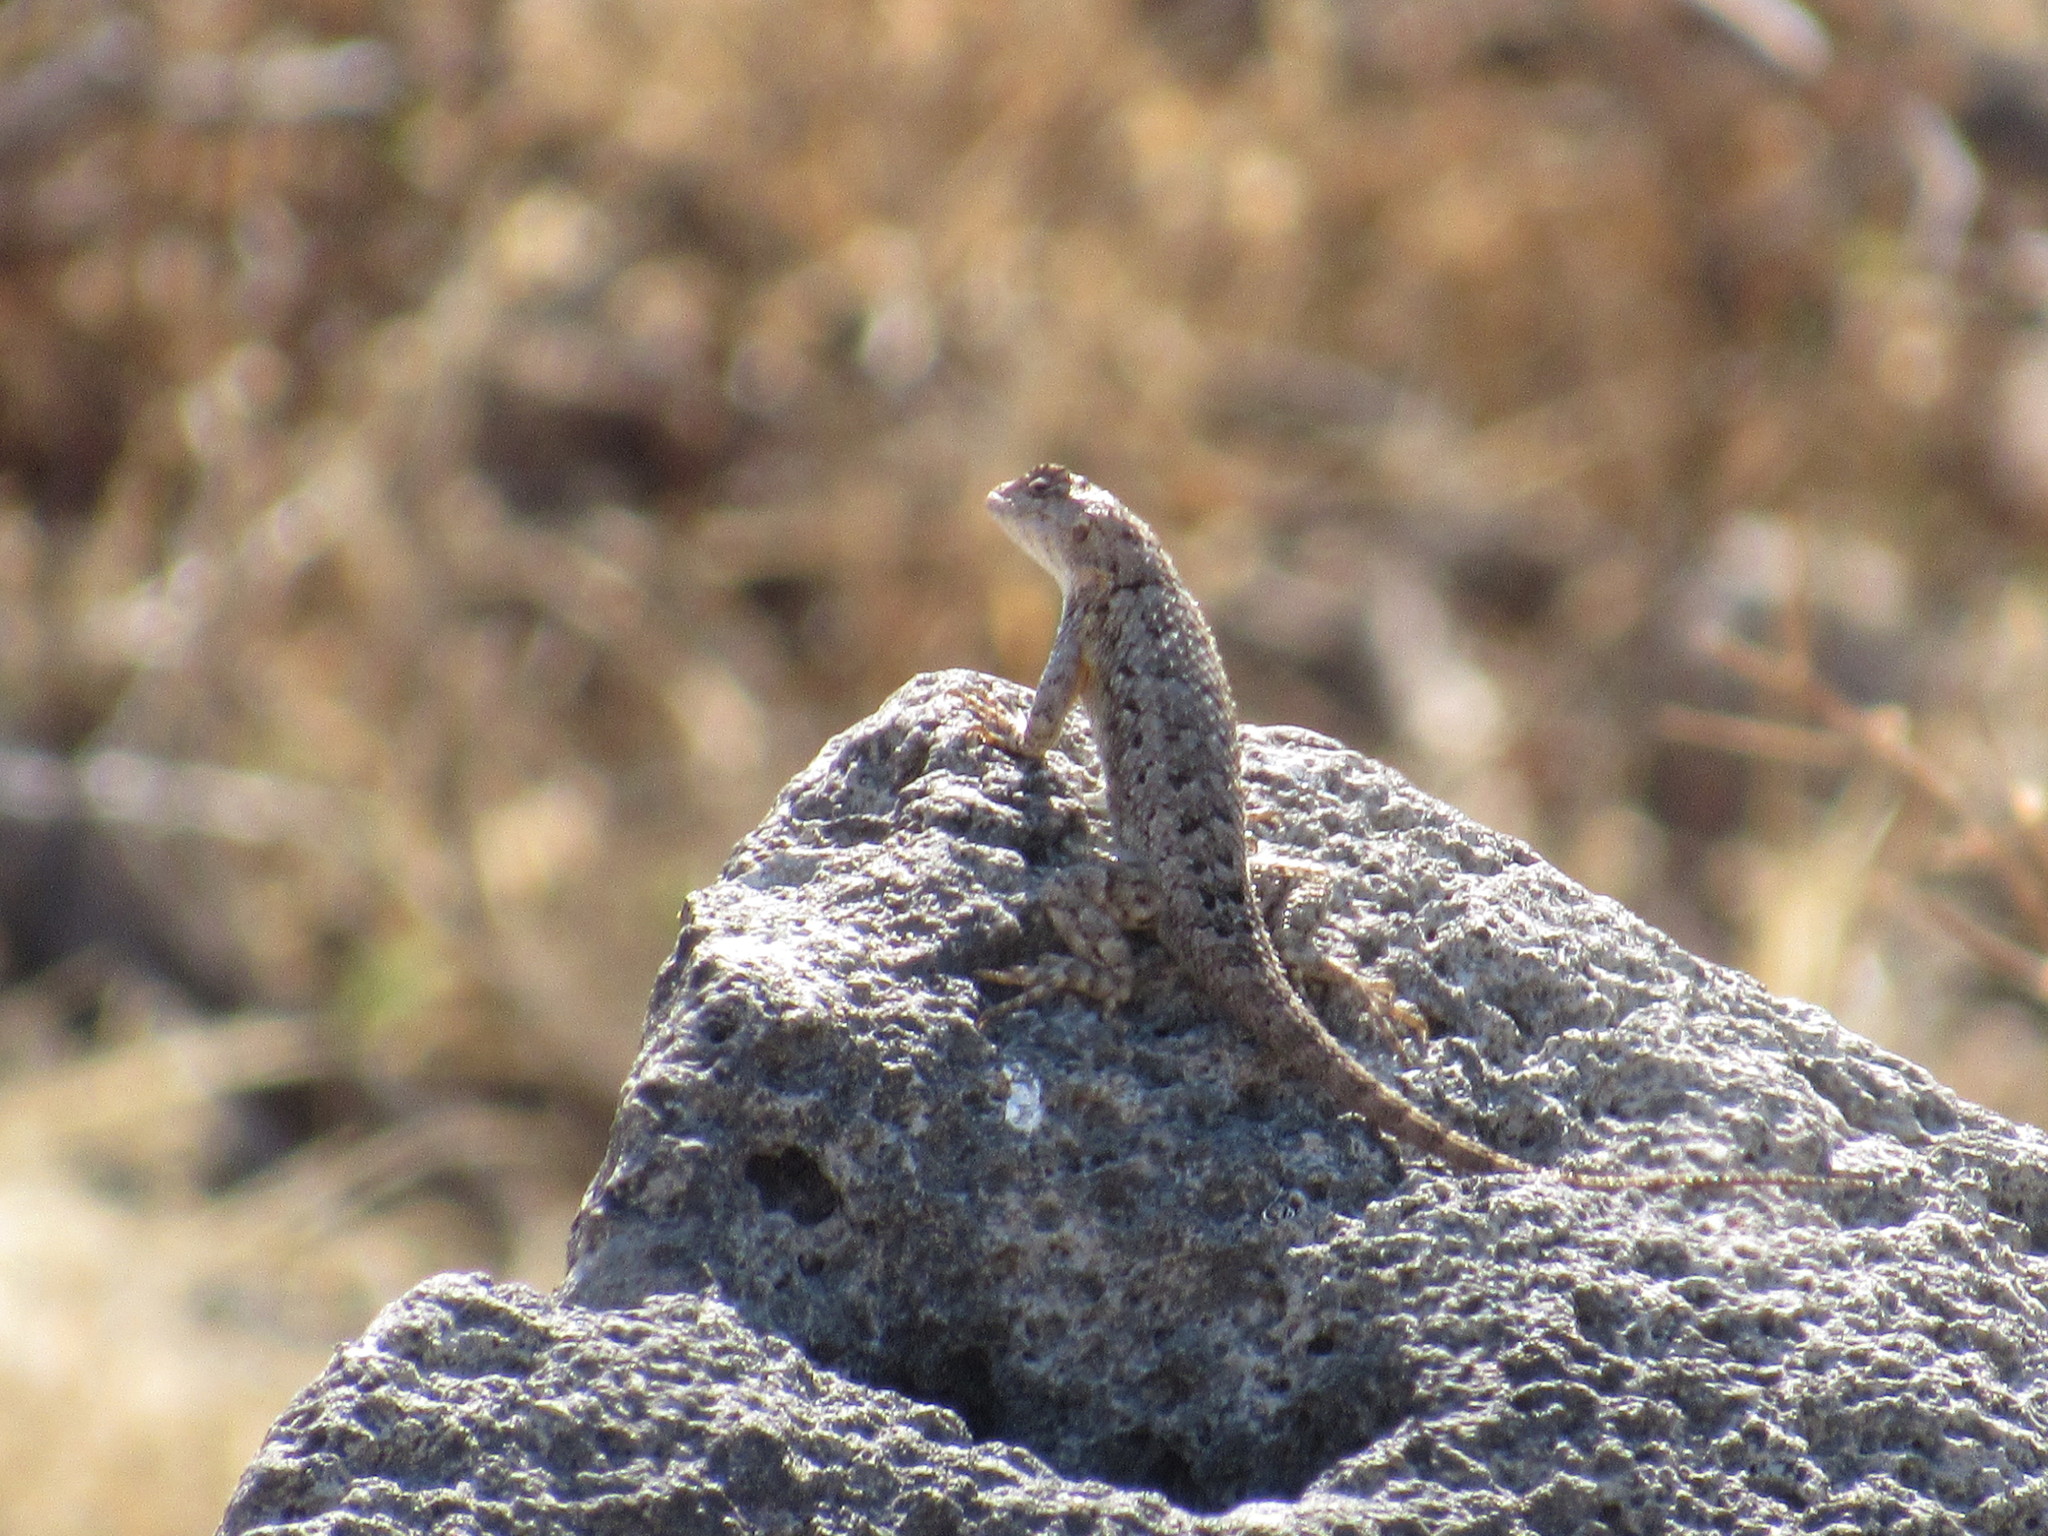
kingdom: Animalia
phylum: Chordata
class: Squamata
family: Phrynosomatidae
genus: Sceloporus
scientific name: Sceloporus spinosus
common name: Blue-spotted spiny lizard [caeruleopunctatus]
